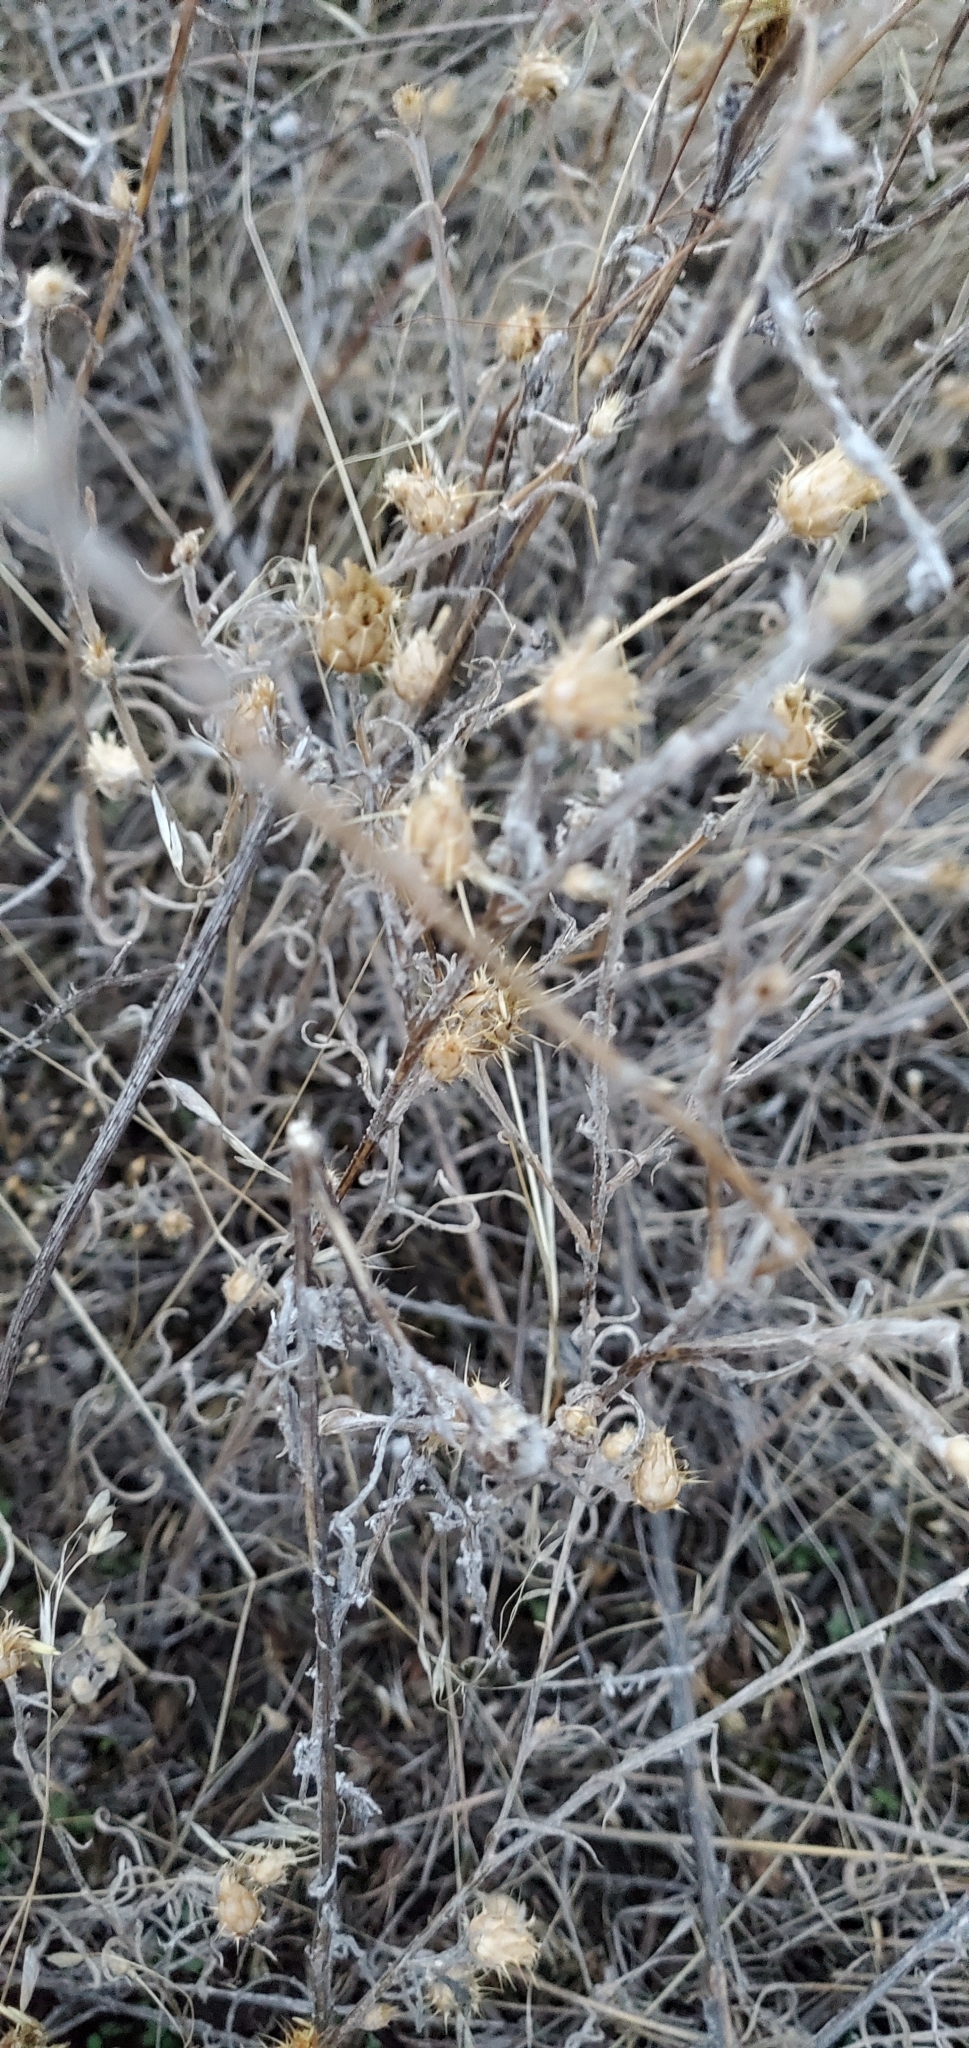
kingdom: Plantae
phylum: Tracheophyta
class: Magnoliopsida
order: Asterales
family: Asteraceae
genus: Centaurea
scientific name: Centaurea solstitialis
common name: Yellow star-thistle
